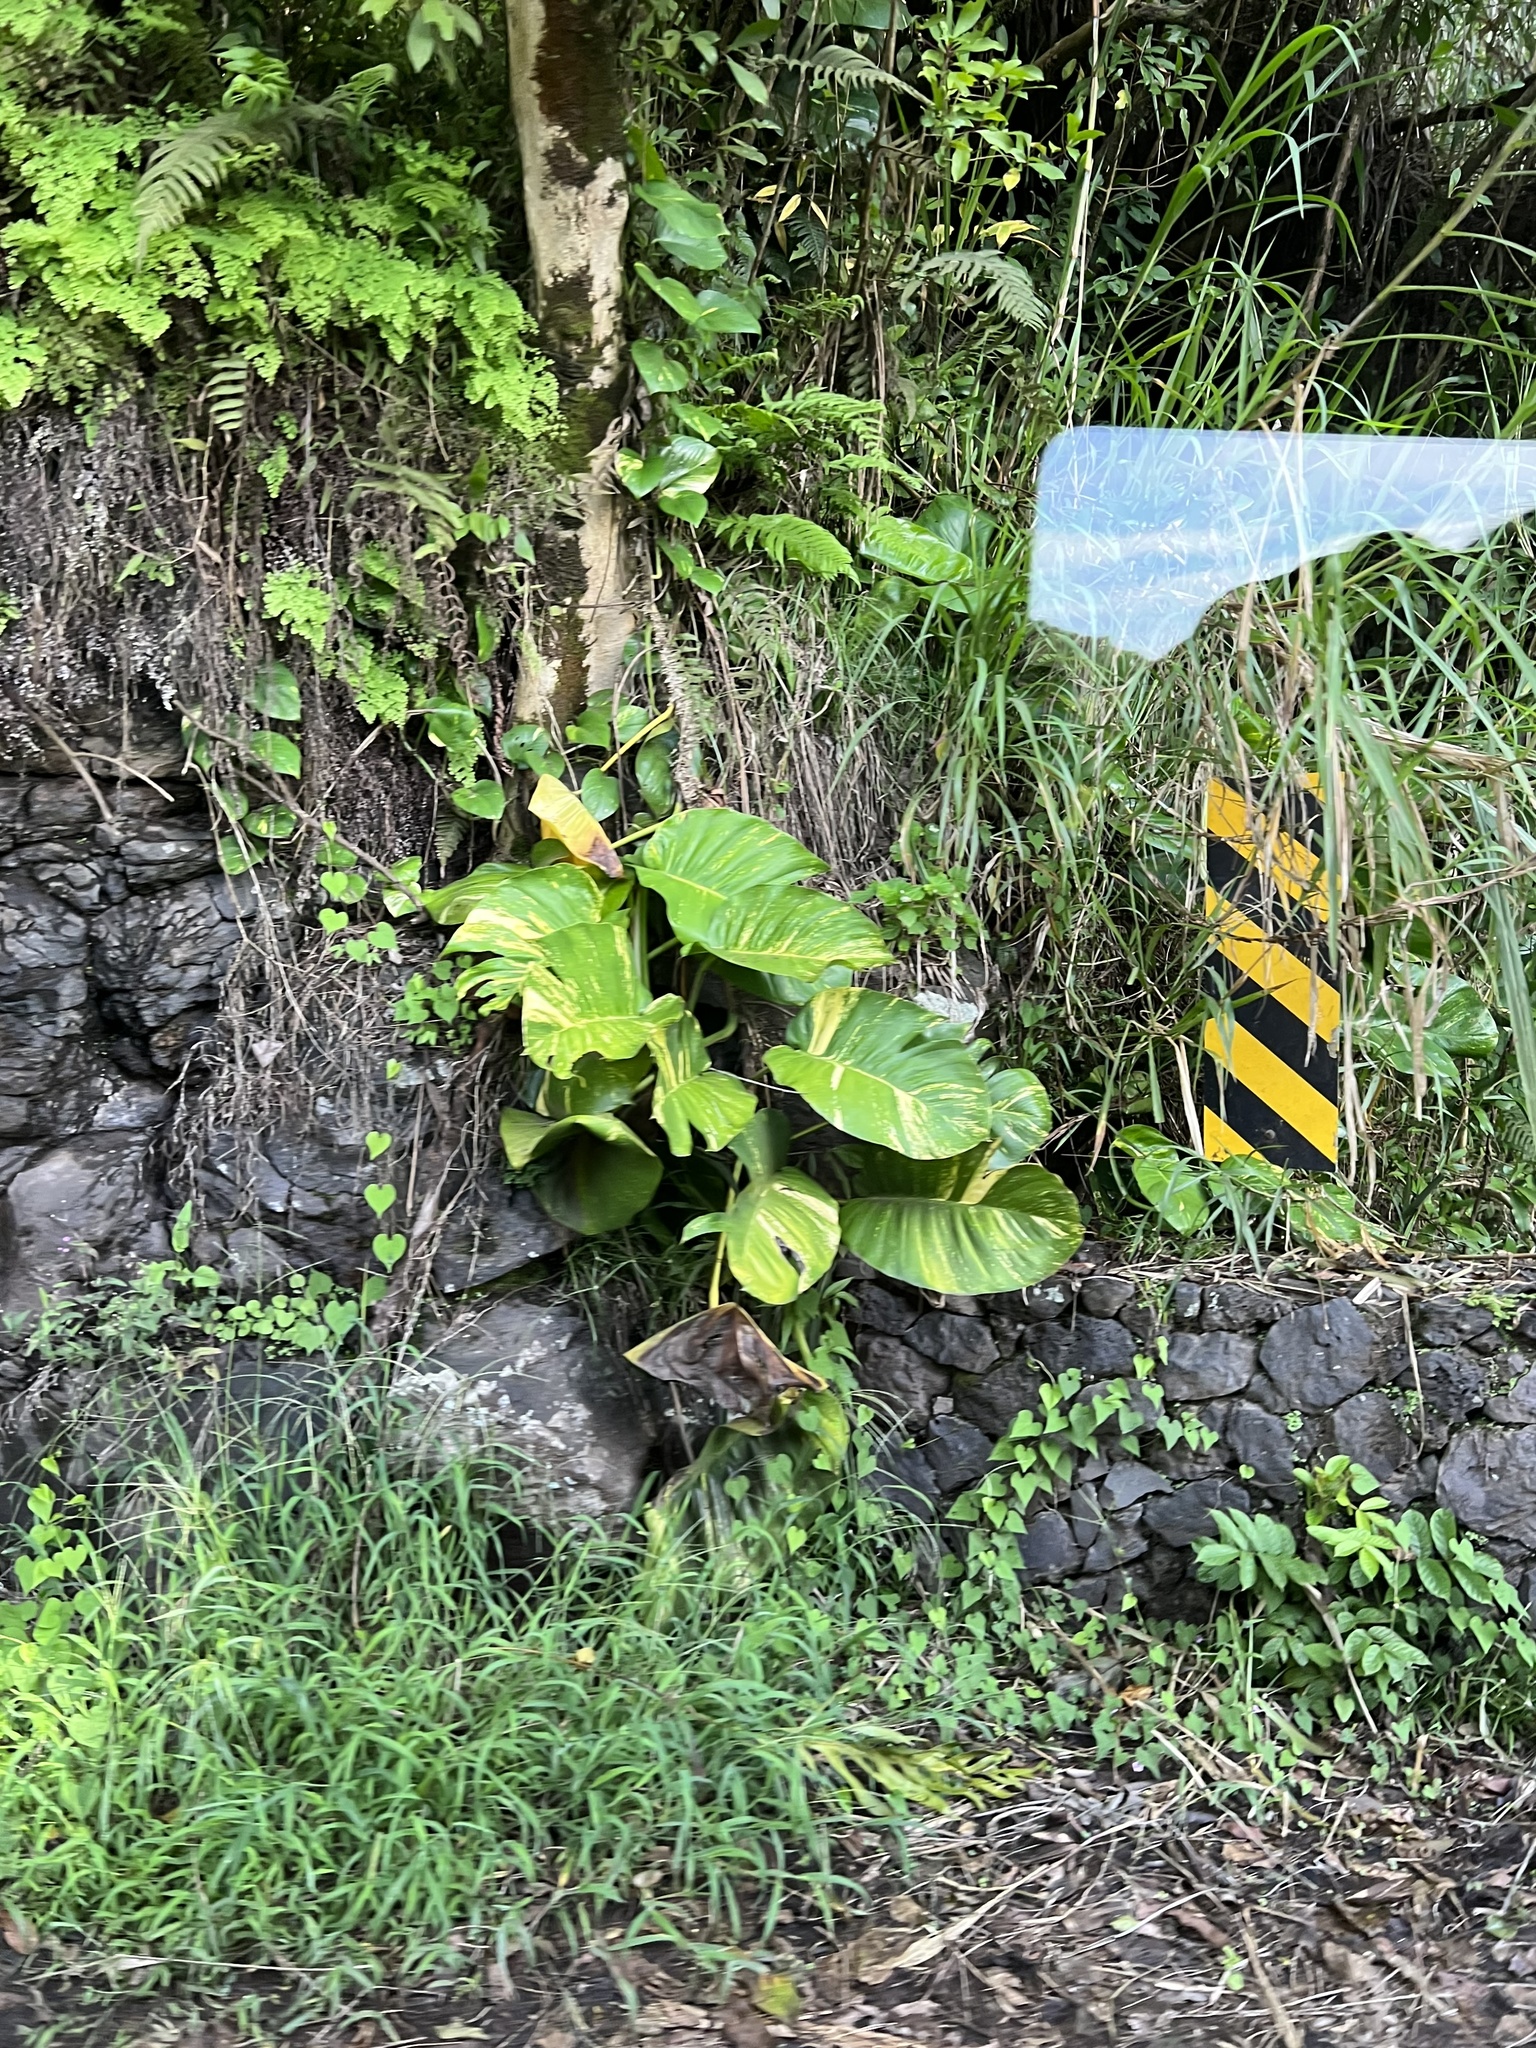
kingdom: Plantae
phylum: Tracheophyta
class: Liliopsida
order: Alismatales
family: Araceae
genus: Epipremnum
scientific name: Epipremnum aureum
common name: Golden hunter's-robe
